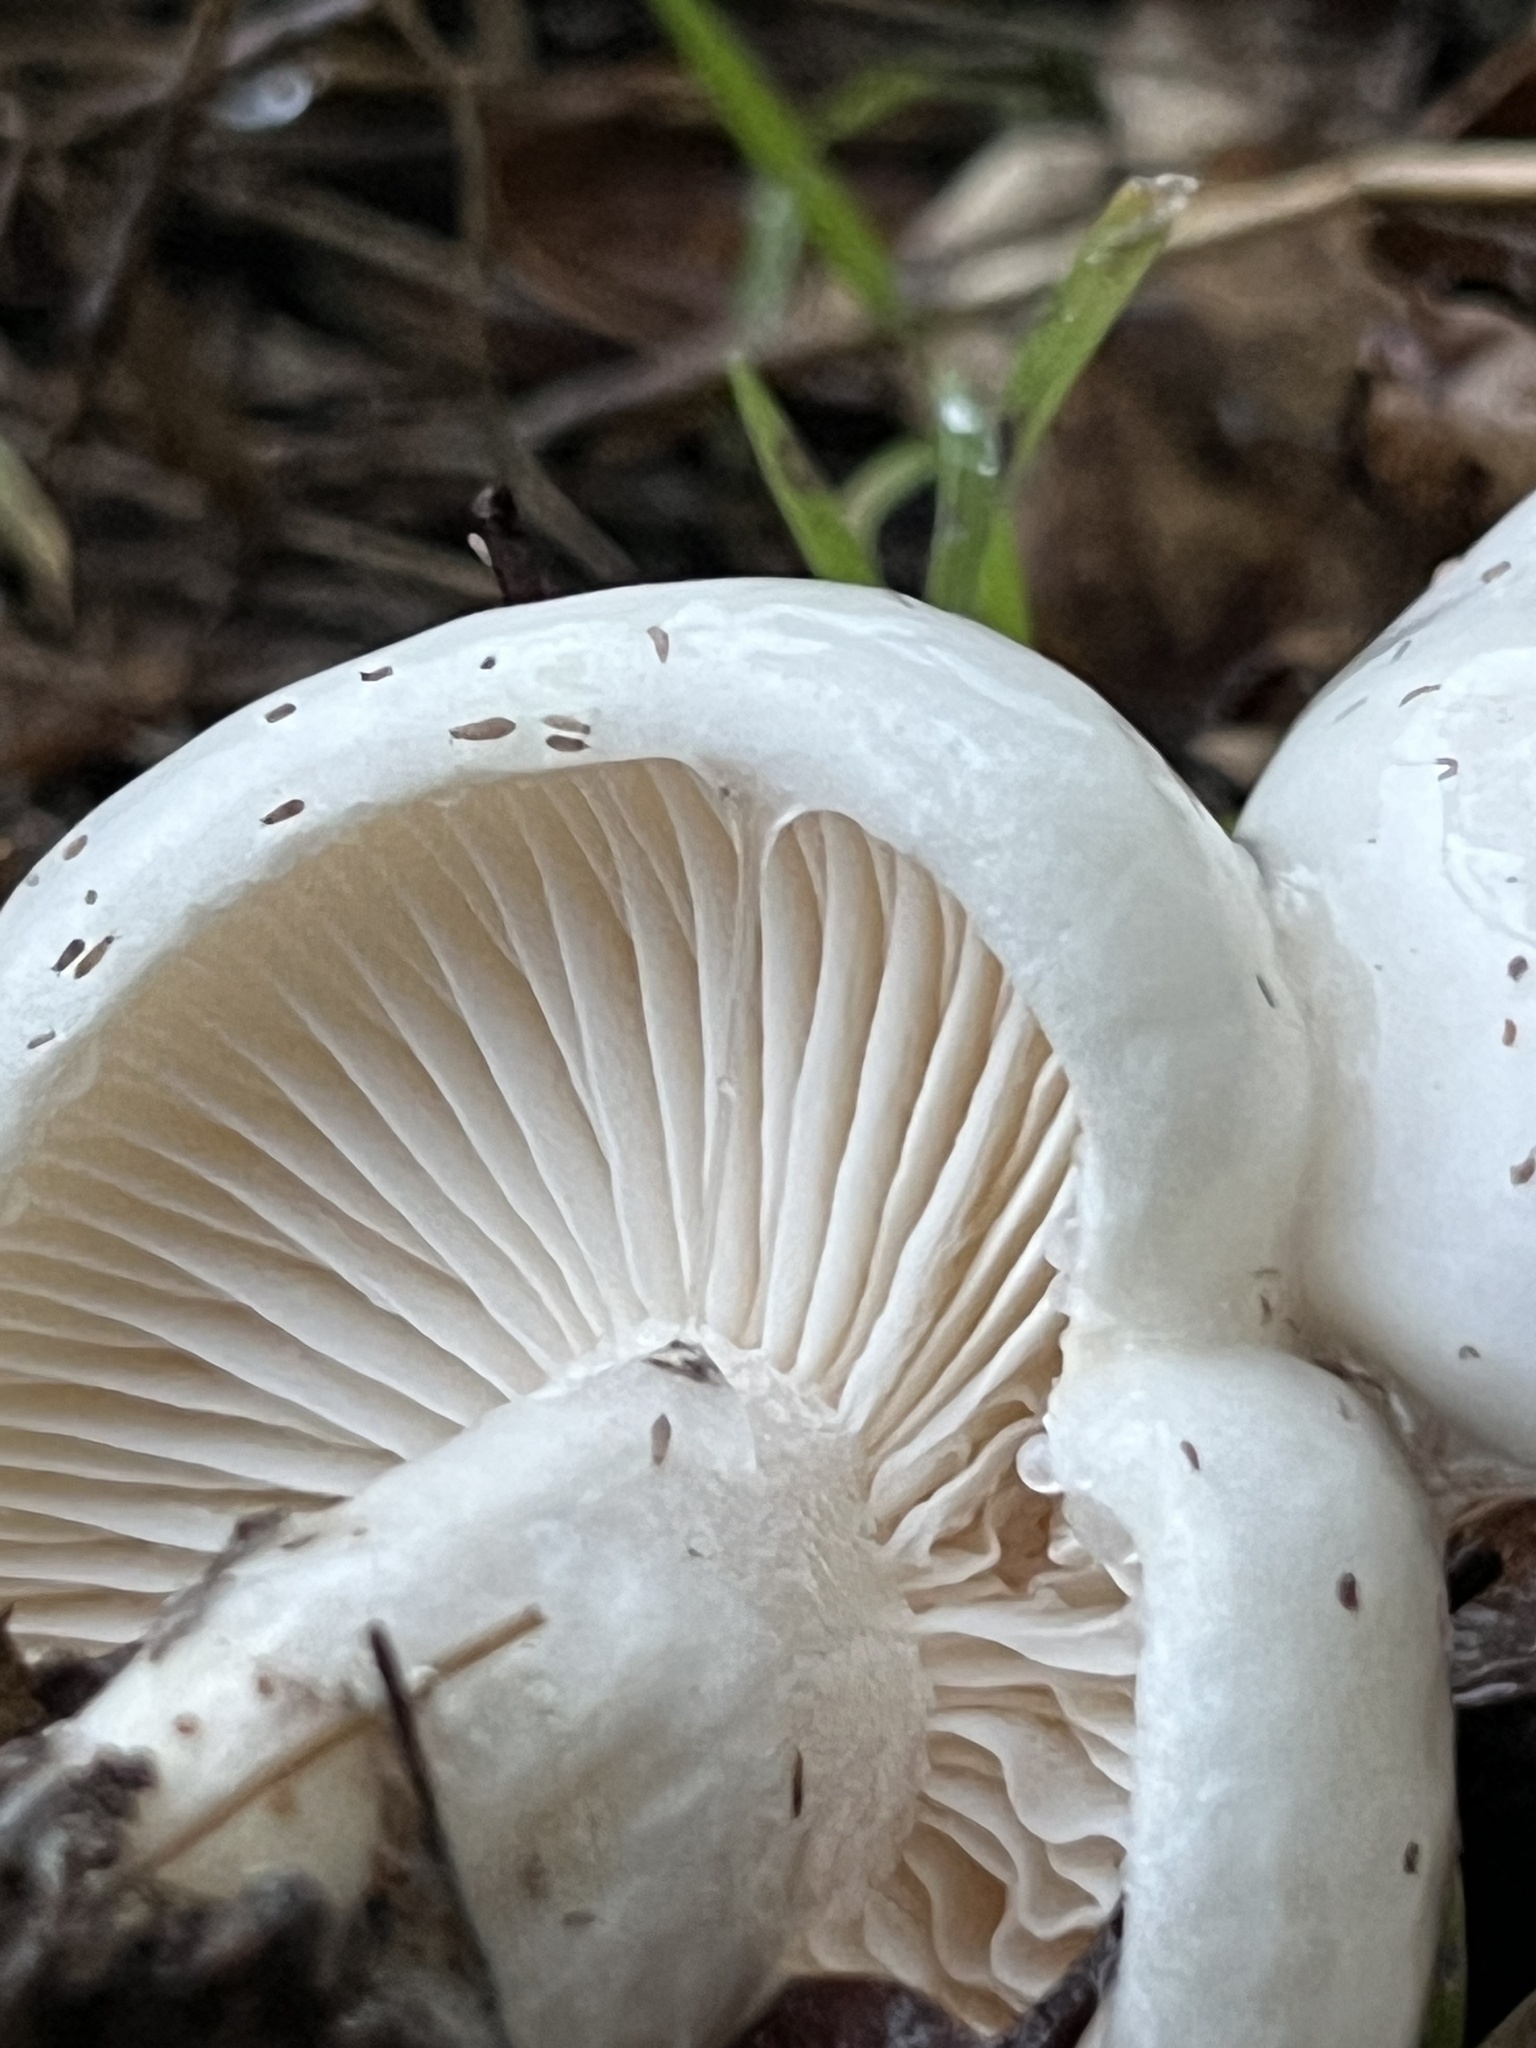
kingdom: Fungi
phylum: Basidiomycota
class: Agaricomycetes
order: Agaricales
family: Hygrophoraceae
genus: Hygrophorus
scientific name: Hygrophorus eburneus
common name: Ivory wax-cap
